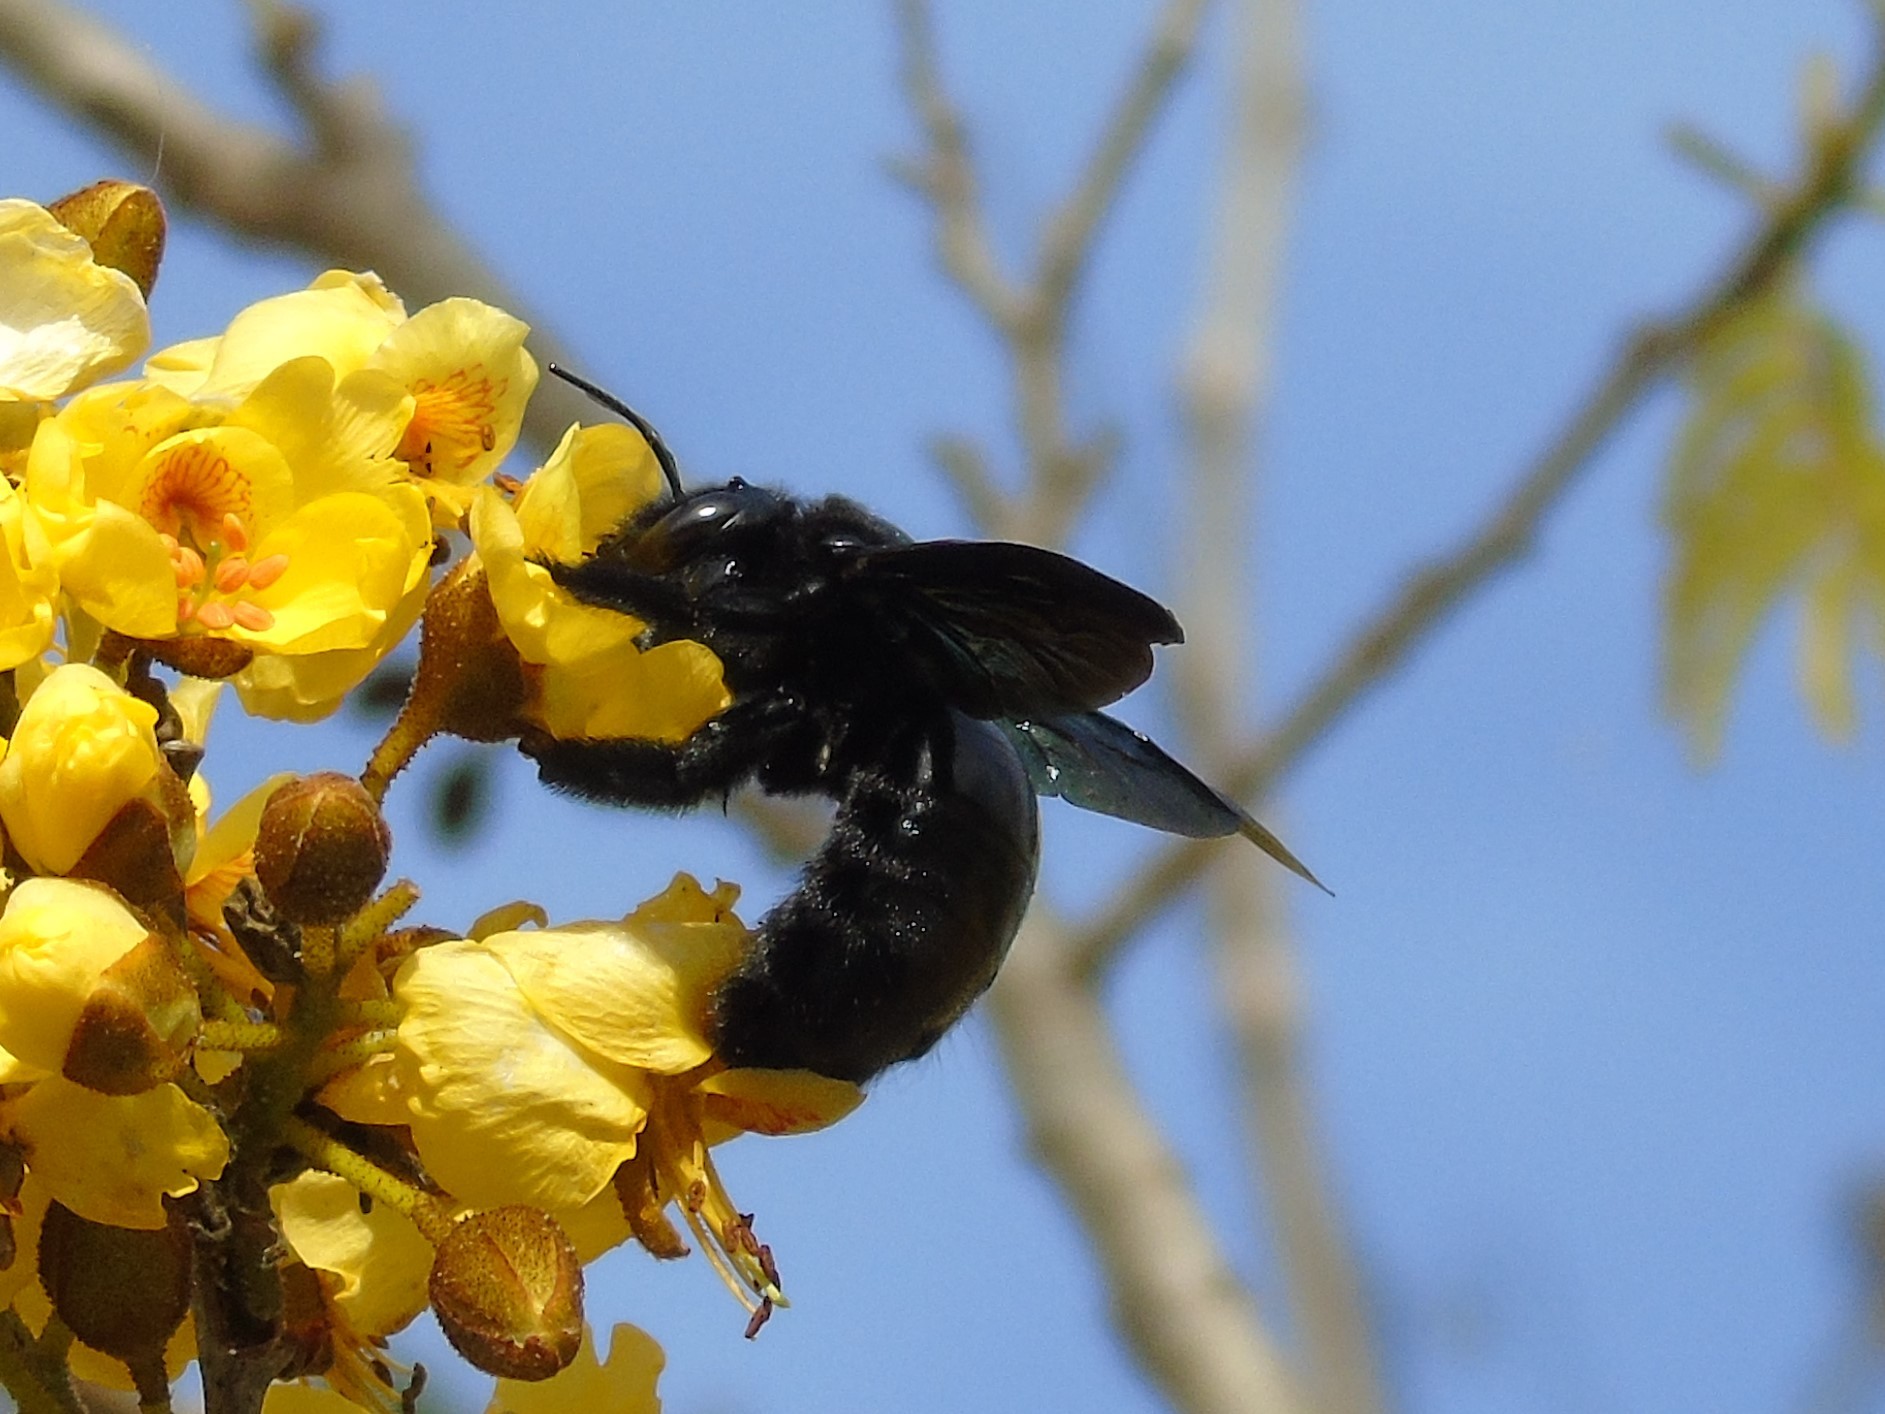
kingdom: Animalia
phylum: Arthropoda
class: Insecta
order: Hymenoptera
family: Apidae
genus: Xylocopa
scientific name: Xylocopa fimbriata
